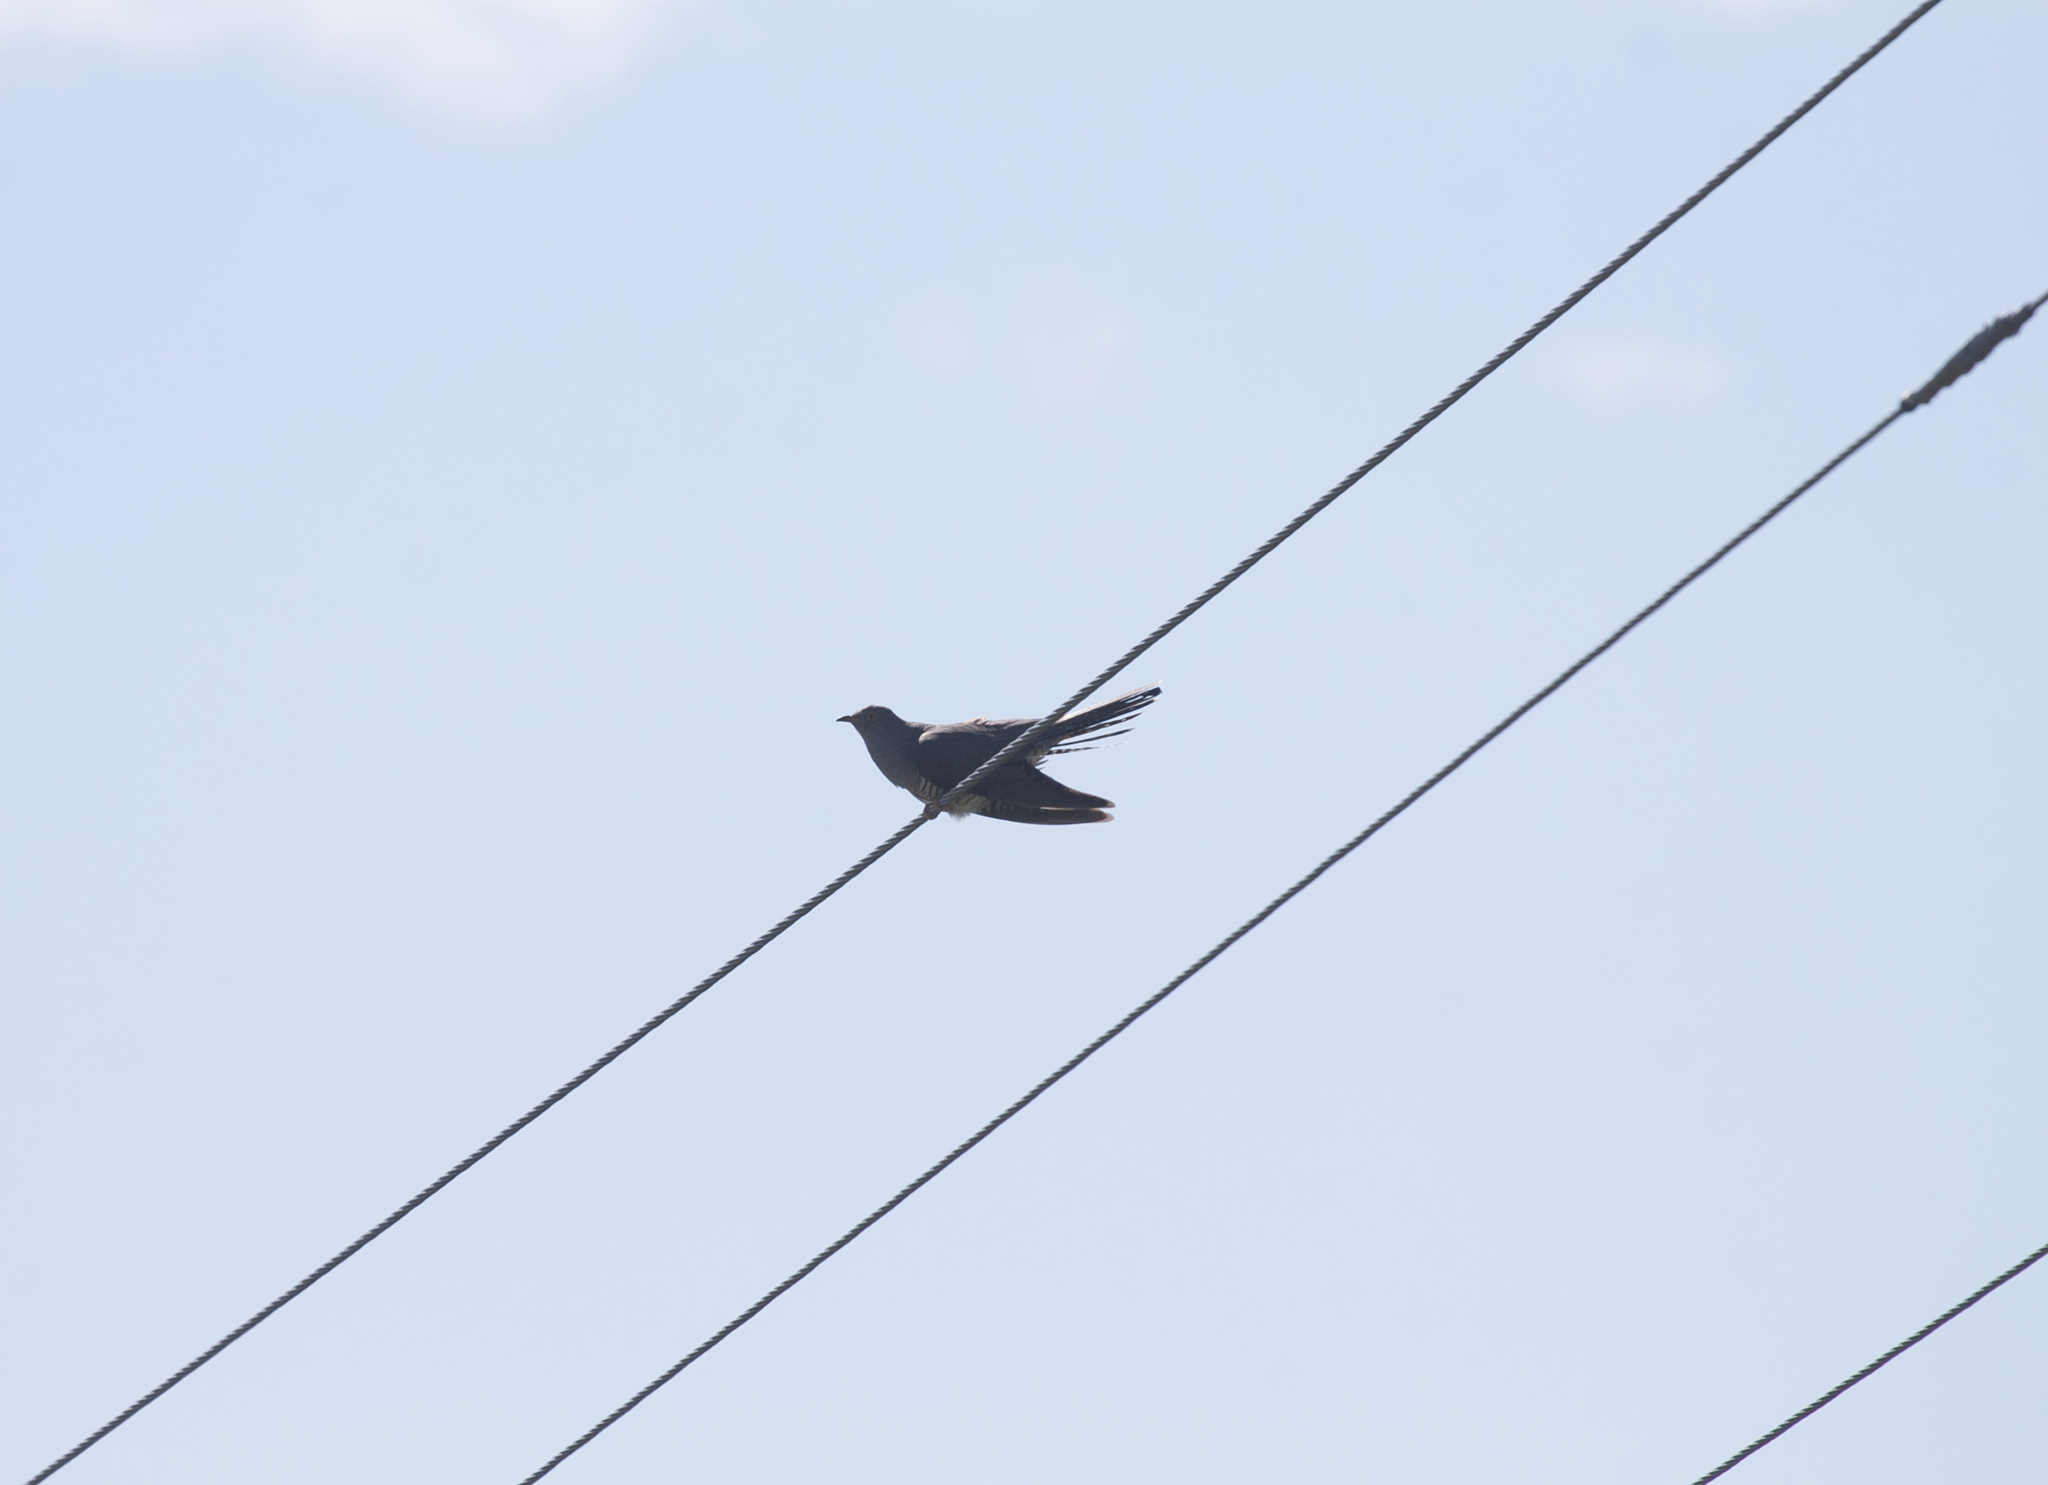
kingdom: Animalia
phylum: Chordata
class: Aves
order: Cuculiformes
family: Cuculidae
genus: Cuculus
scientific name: Cuculus canorus
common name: Common cuckoo
